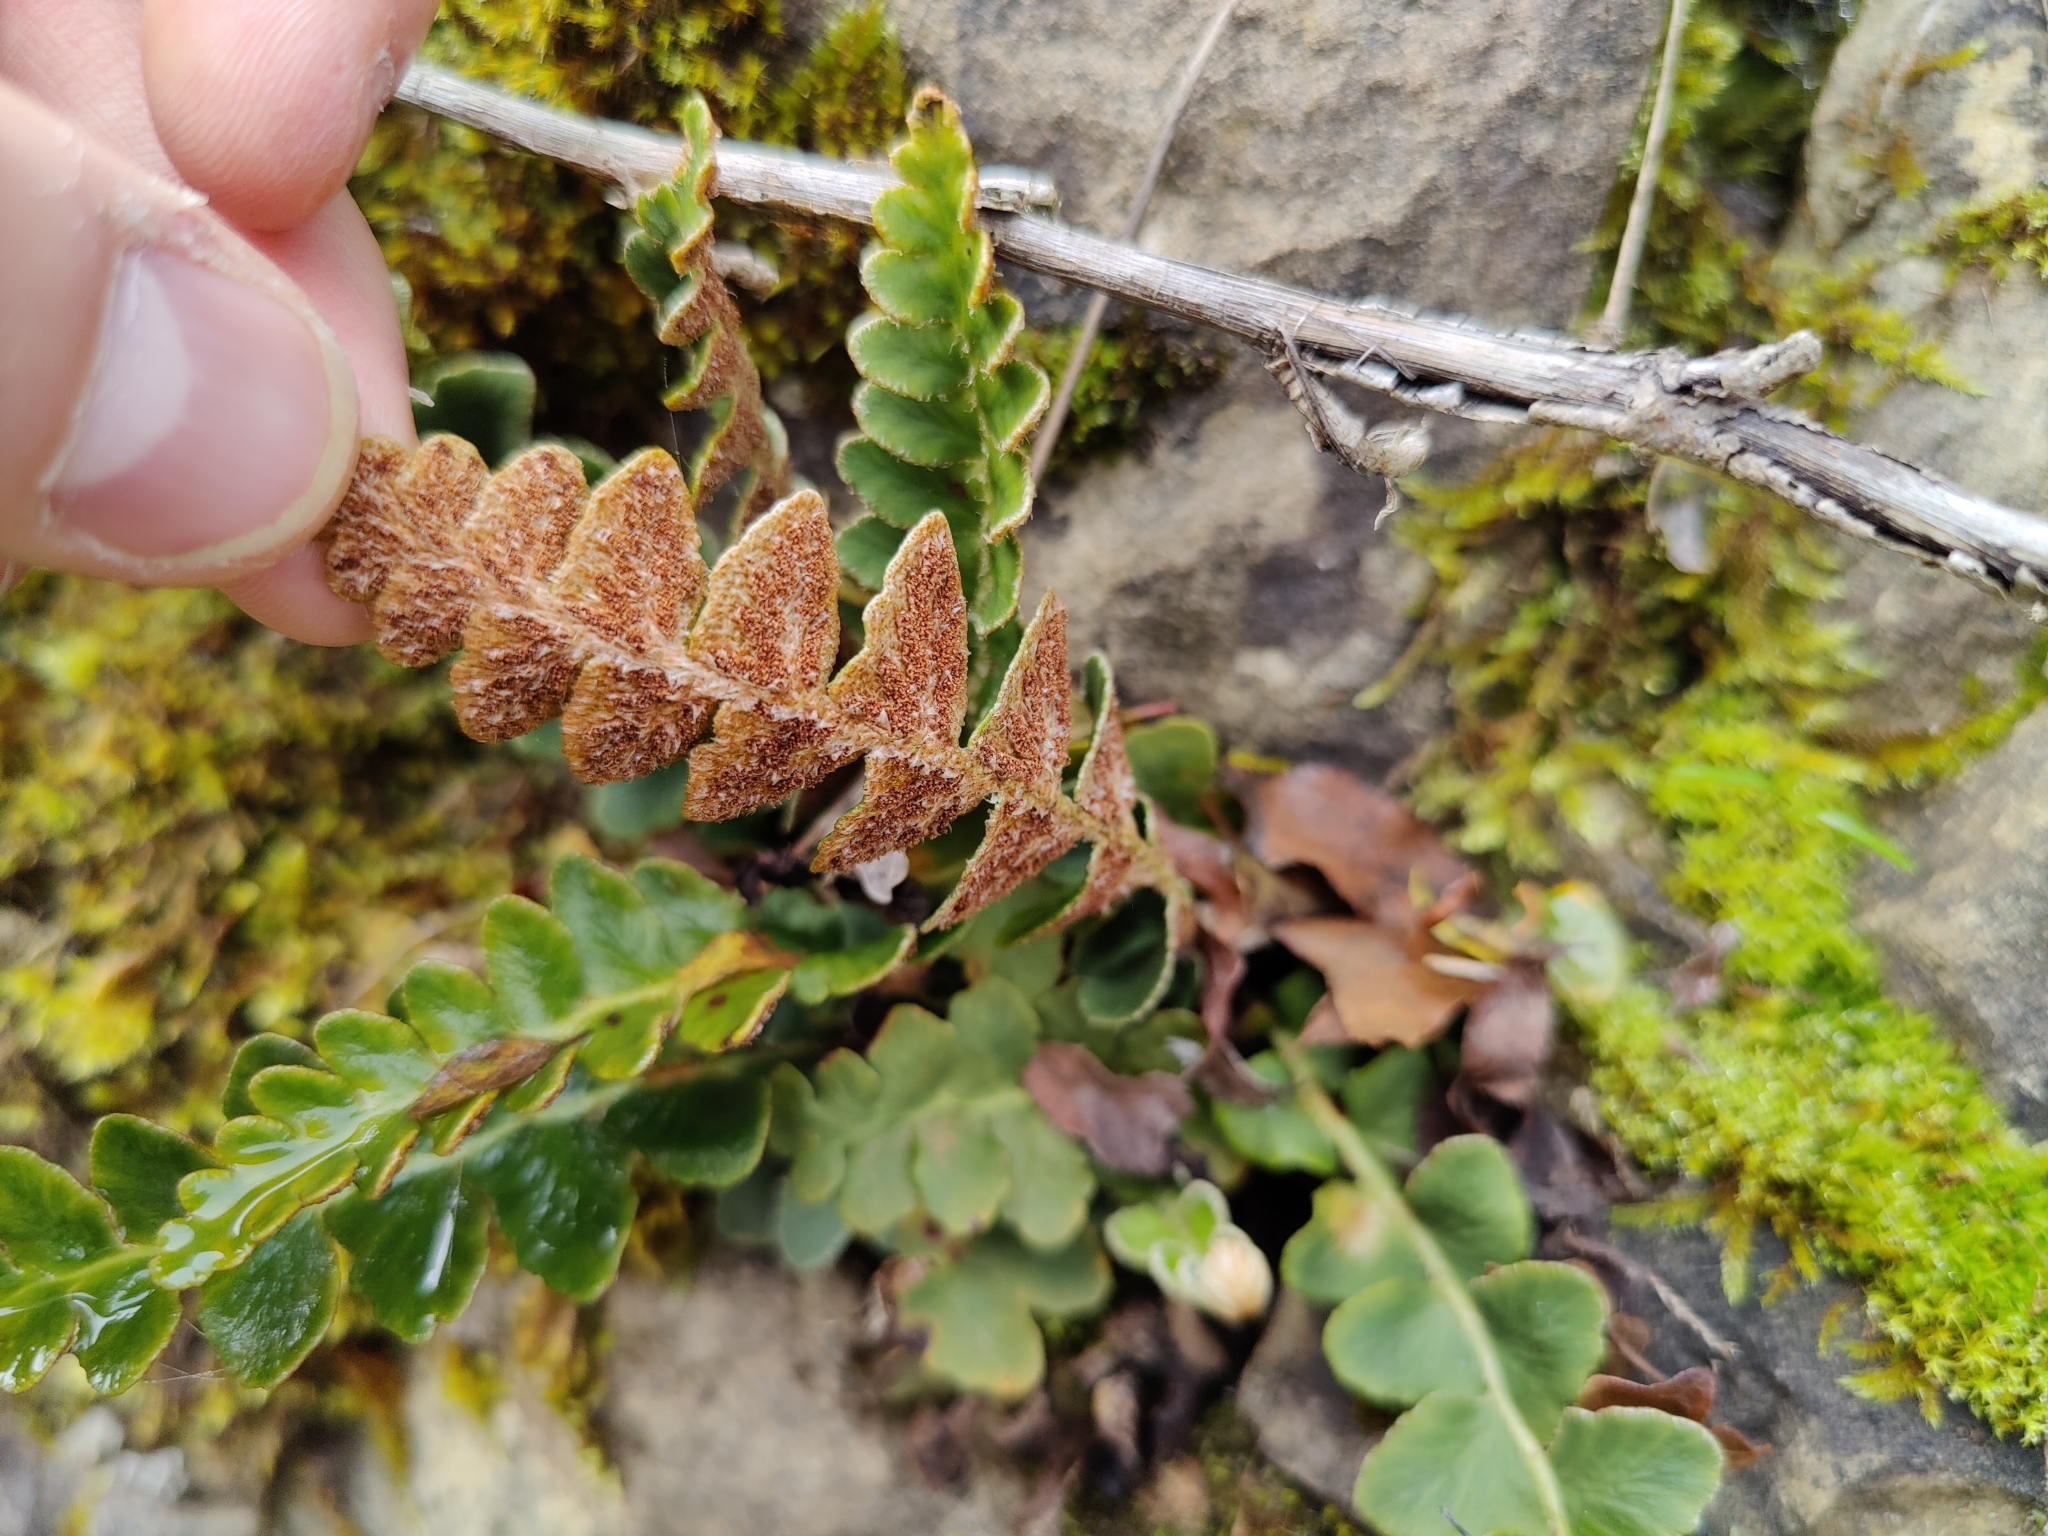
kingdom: Plantae
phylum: Tracheophyta
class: Polypodiopsida
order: Polypodiales
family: Aspleniaceae
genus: Asplenium
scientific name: Asplenium ceterach
